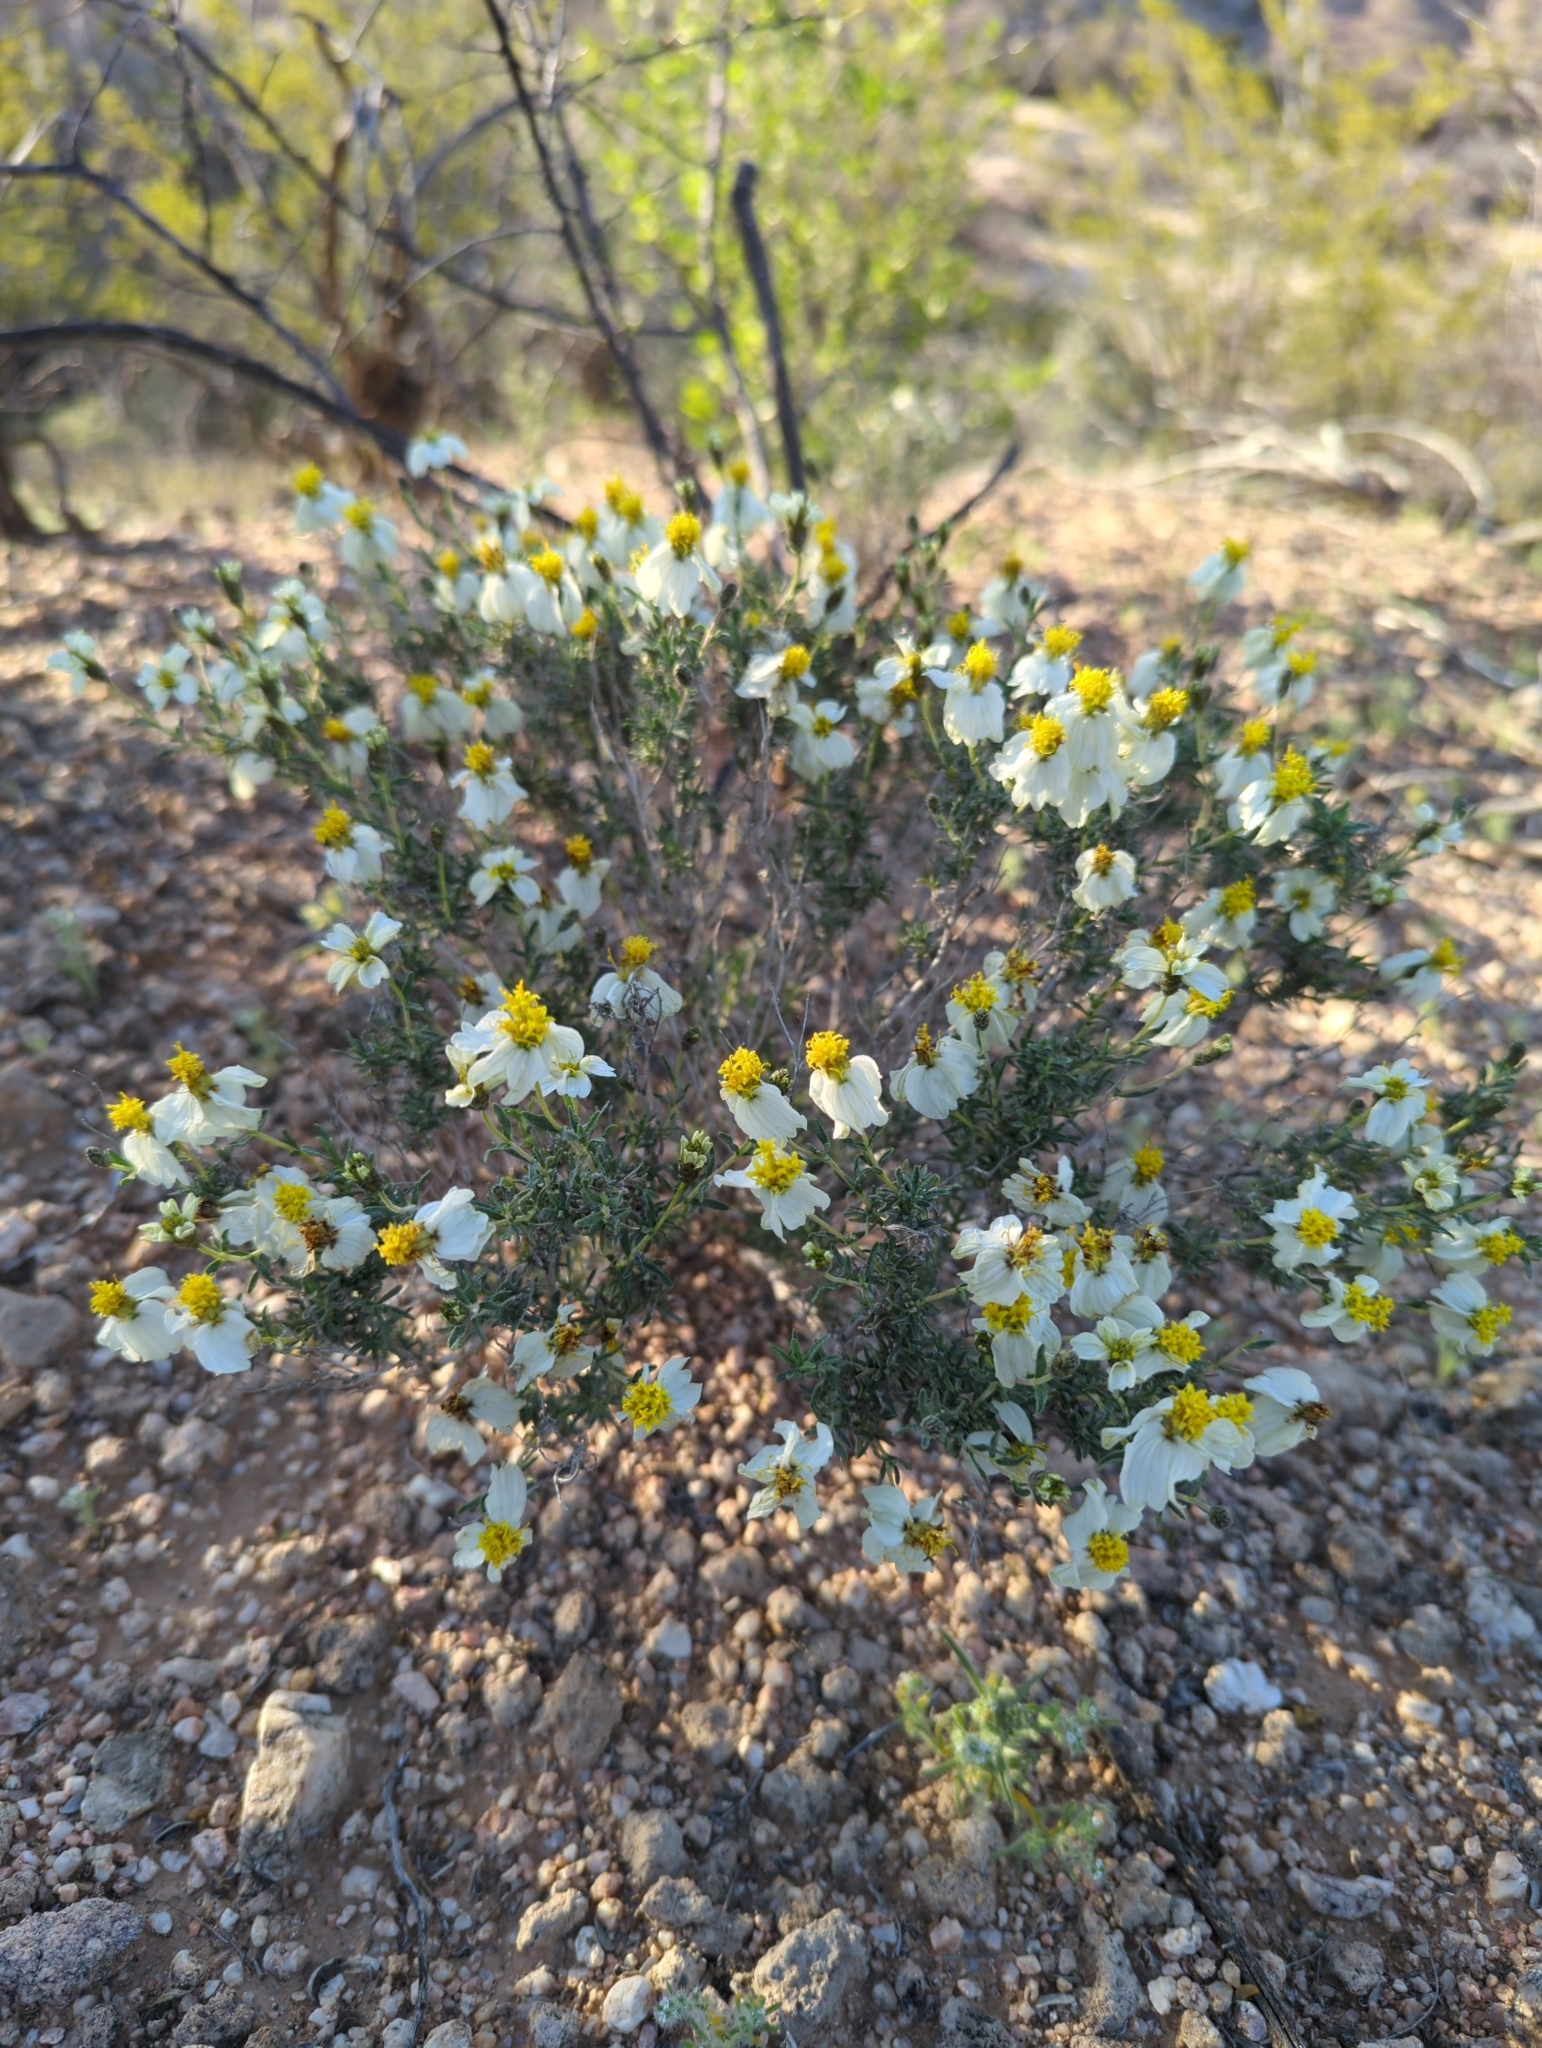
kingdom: Plantae
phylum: Tracheophyta
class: Magnoliopsida
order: Asterales
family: Asteraceae
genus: Zinnia
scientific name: Zinnia acerosa
